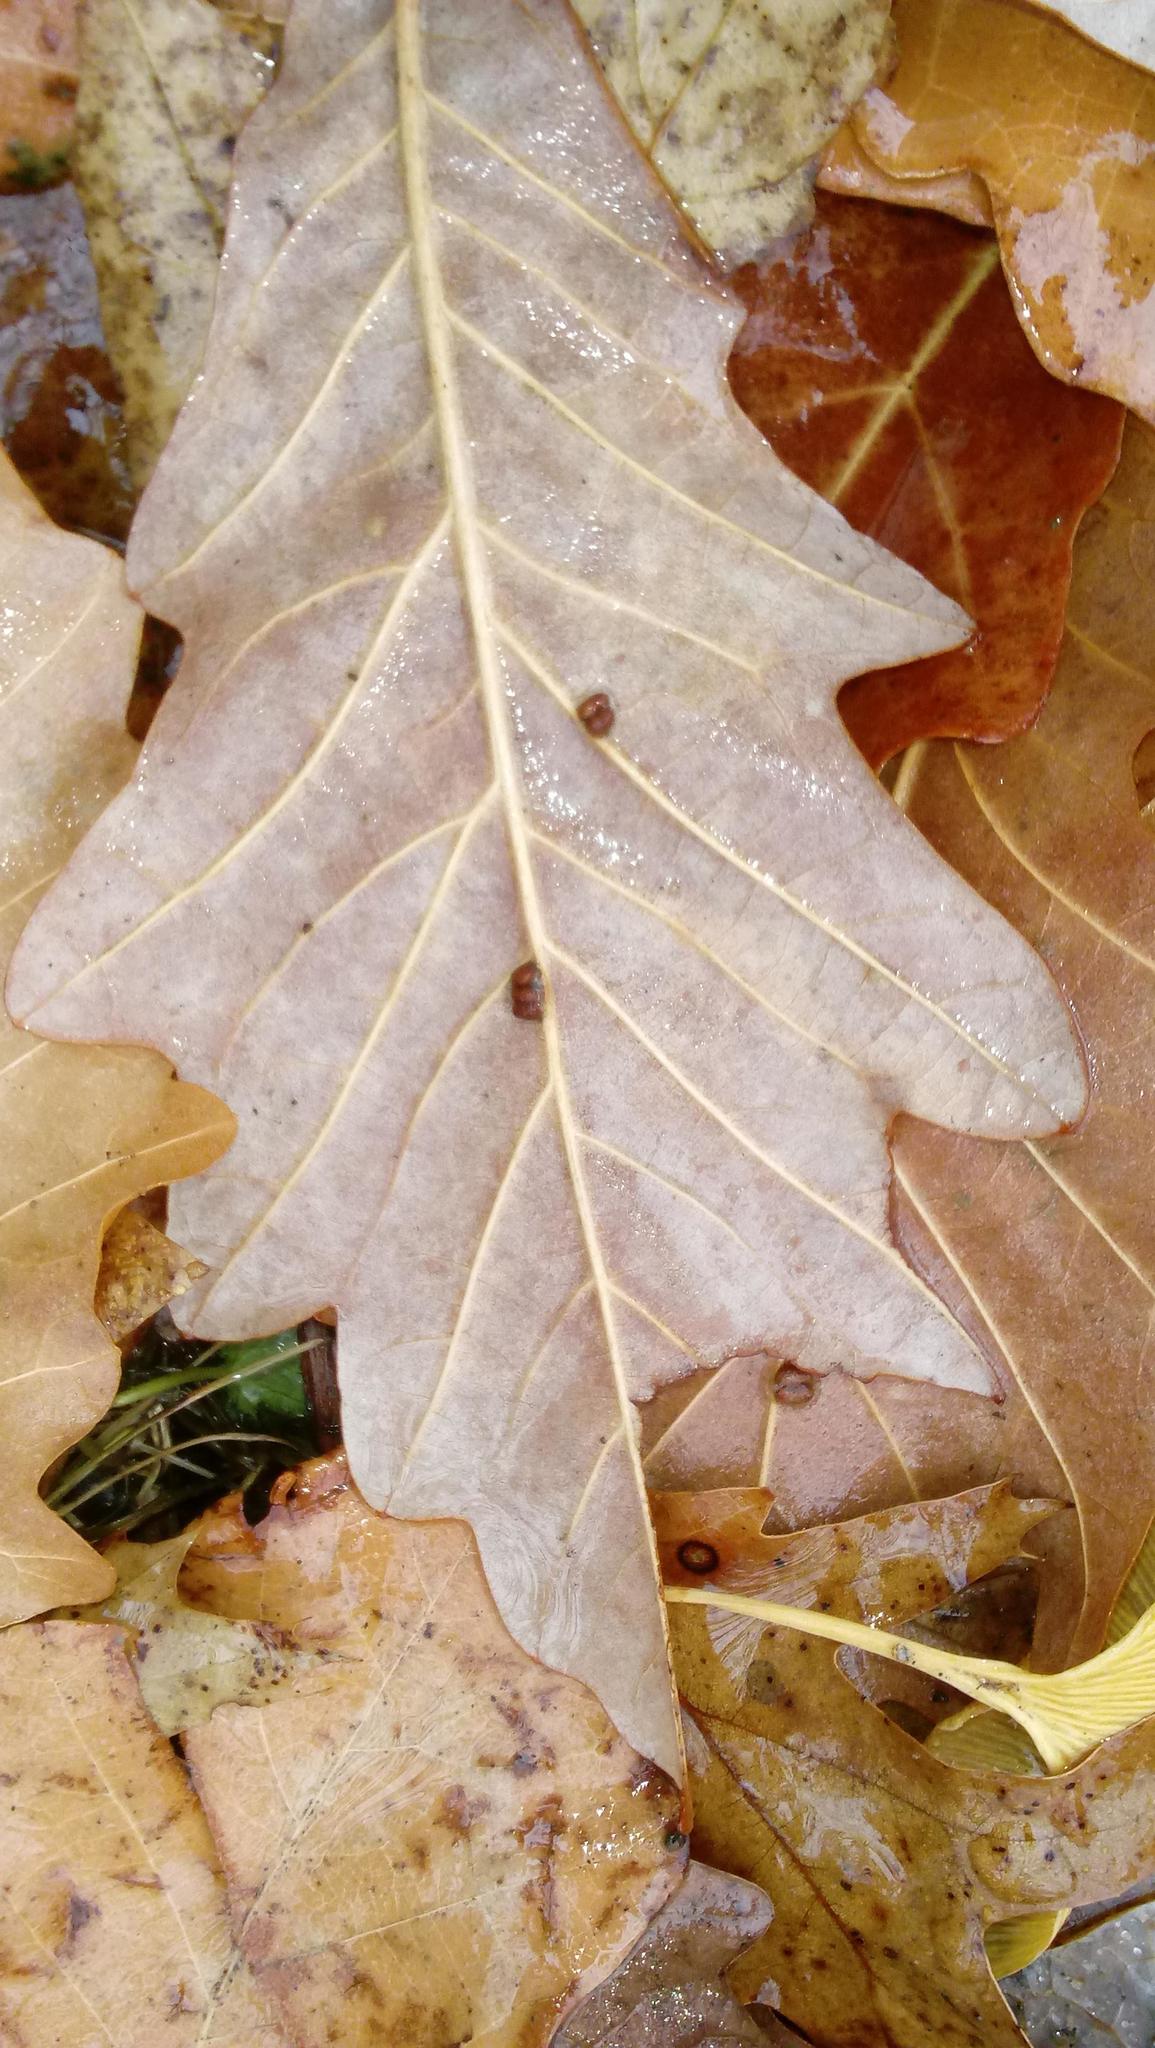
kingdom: Animalia
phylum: Arthropoda
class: Insecta
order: Hymenoptera
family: Cynipidae
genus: Andricus
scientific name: Andricus Druon ignotum
